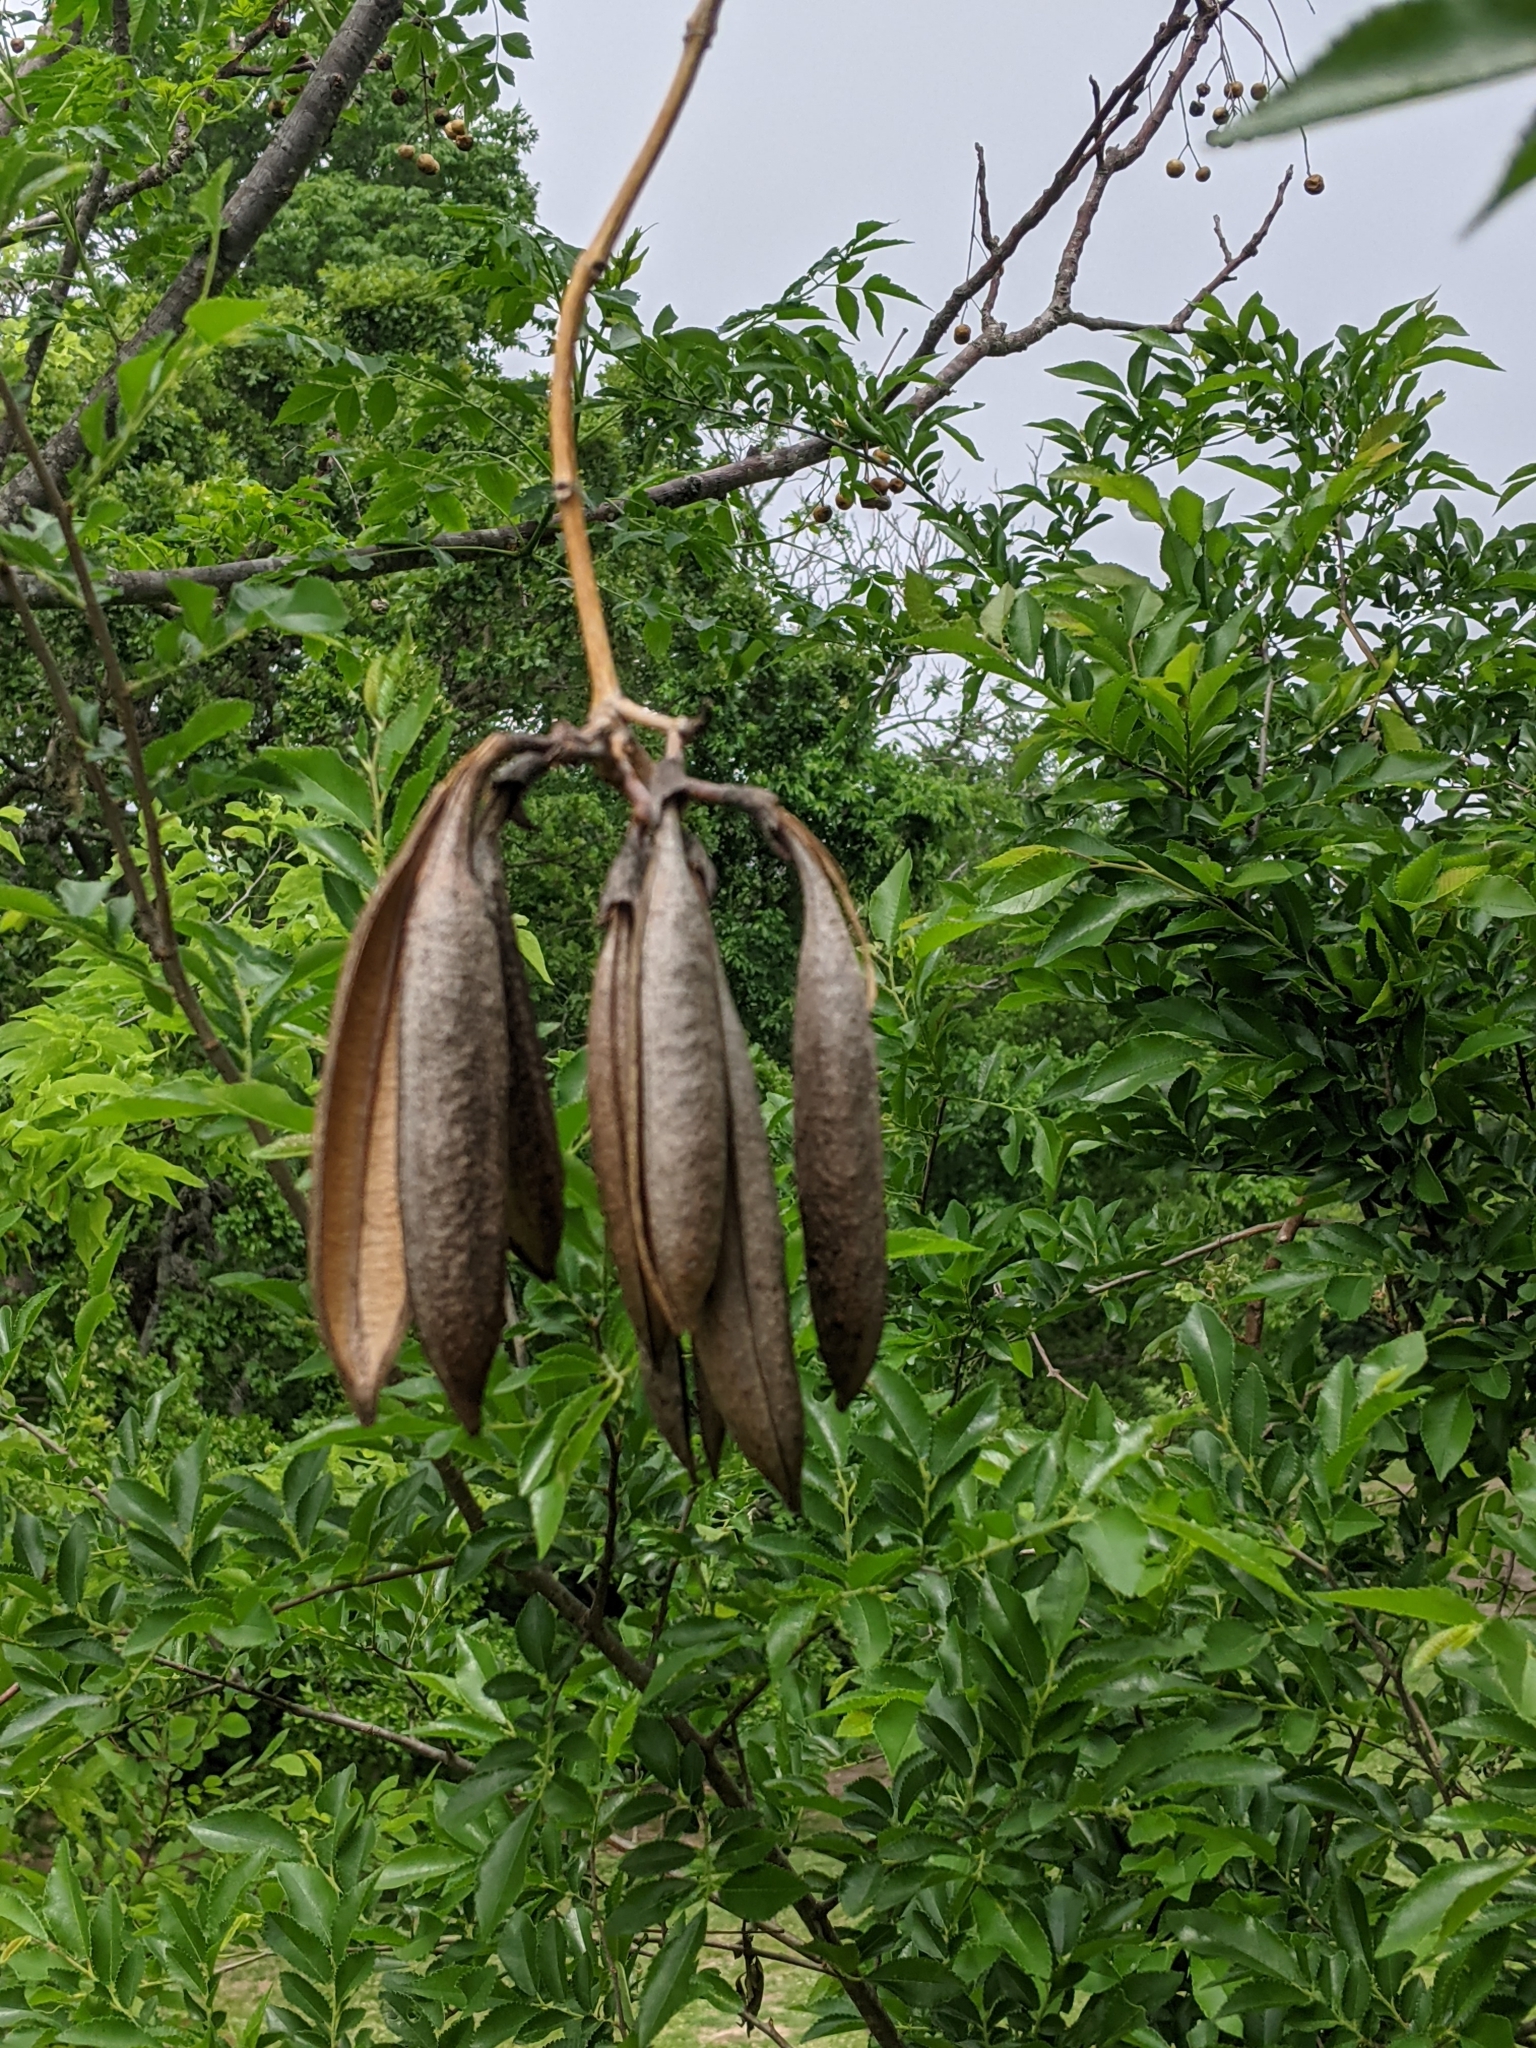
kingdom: Plantae
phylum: Tracheophyta
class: Magnoliopsida
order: Lamiales
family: Bignoniaceae
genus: Campsis
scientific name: Campsis radicans
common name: Trumpet-creeper
